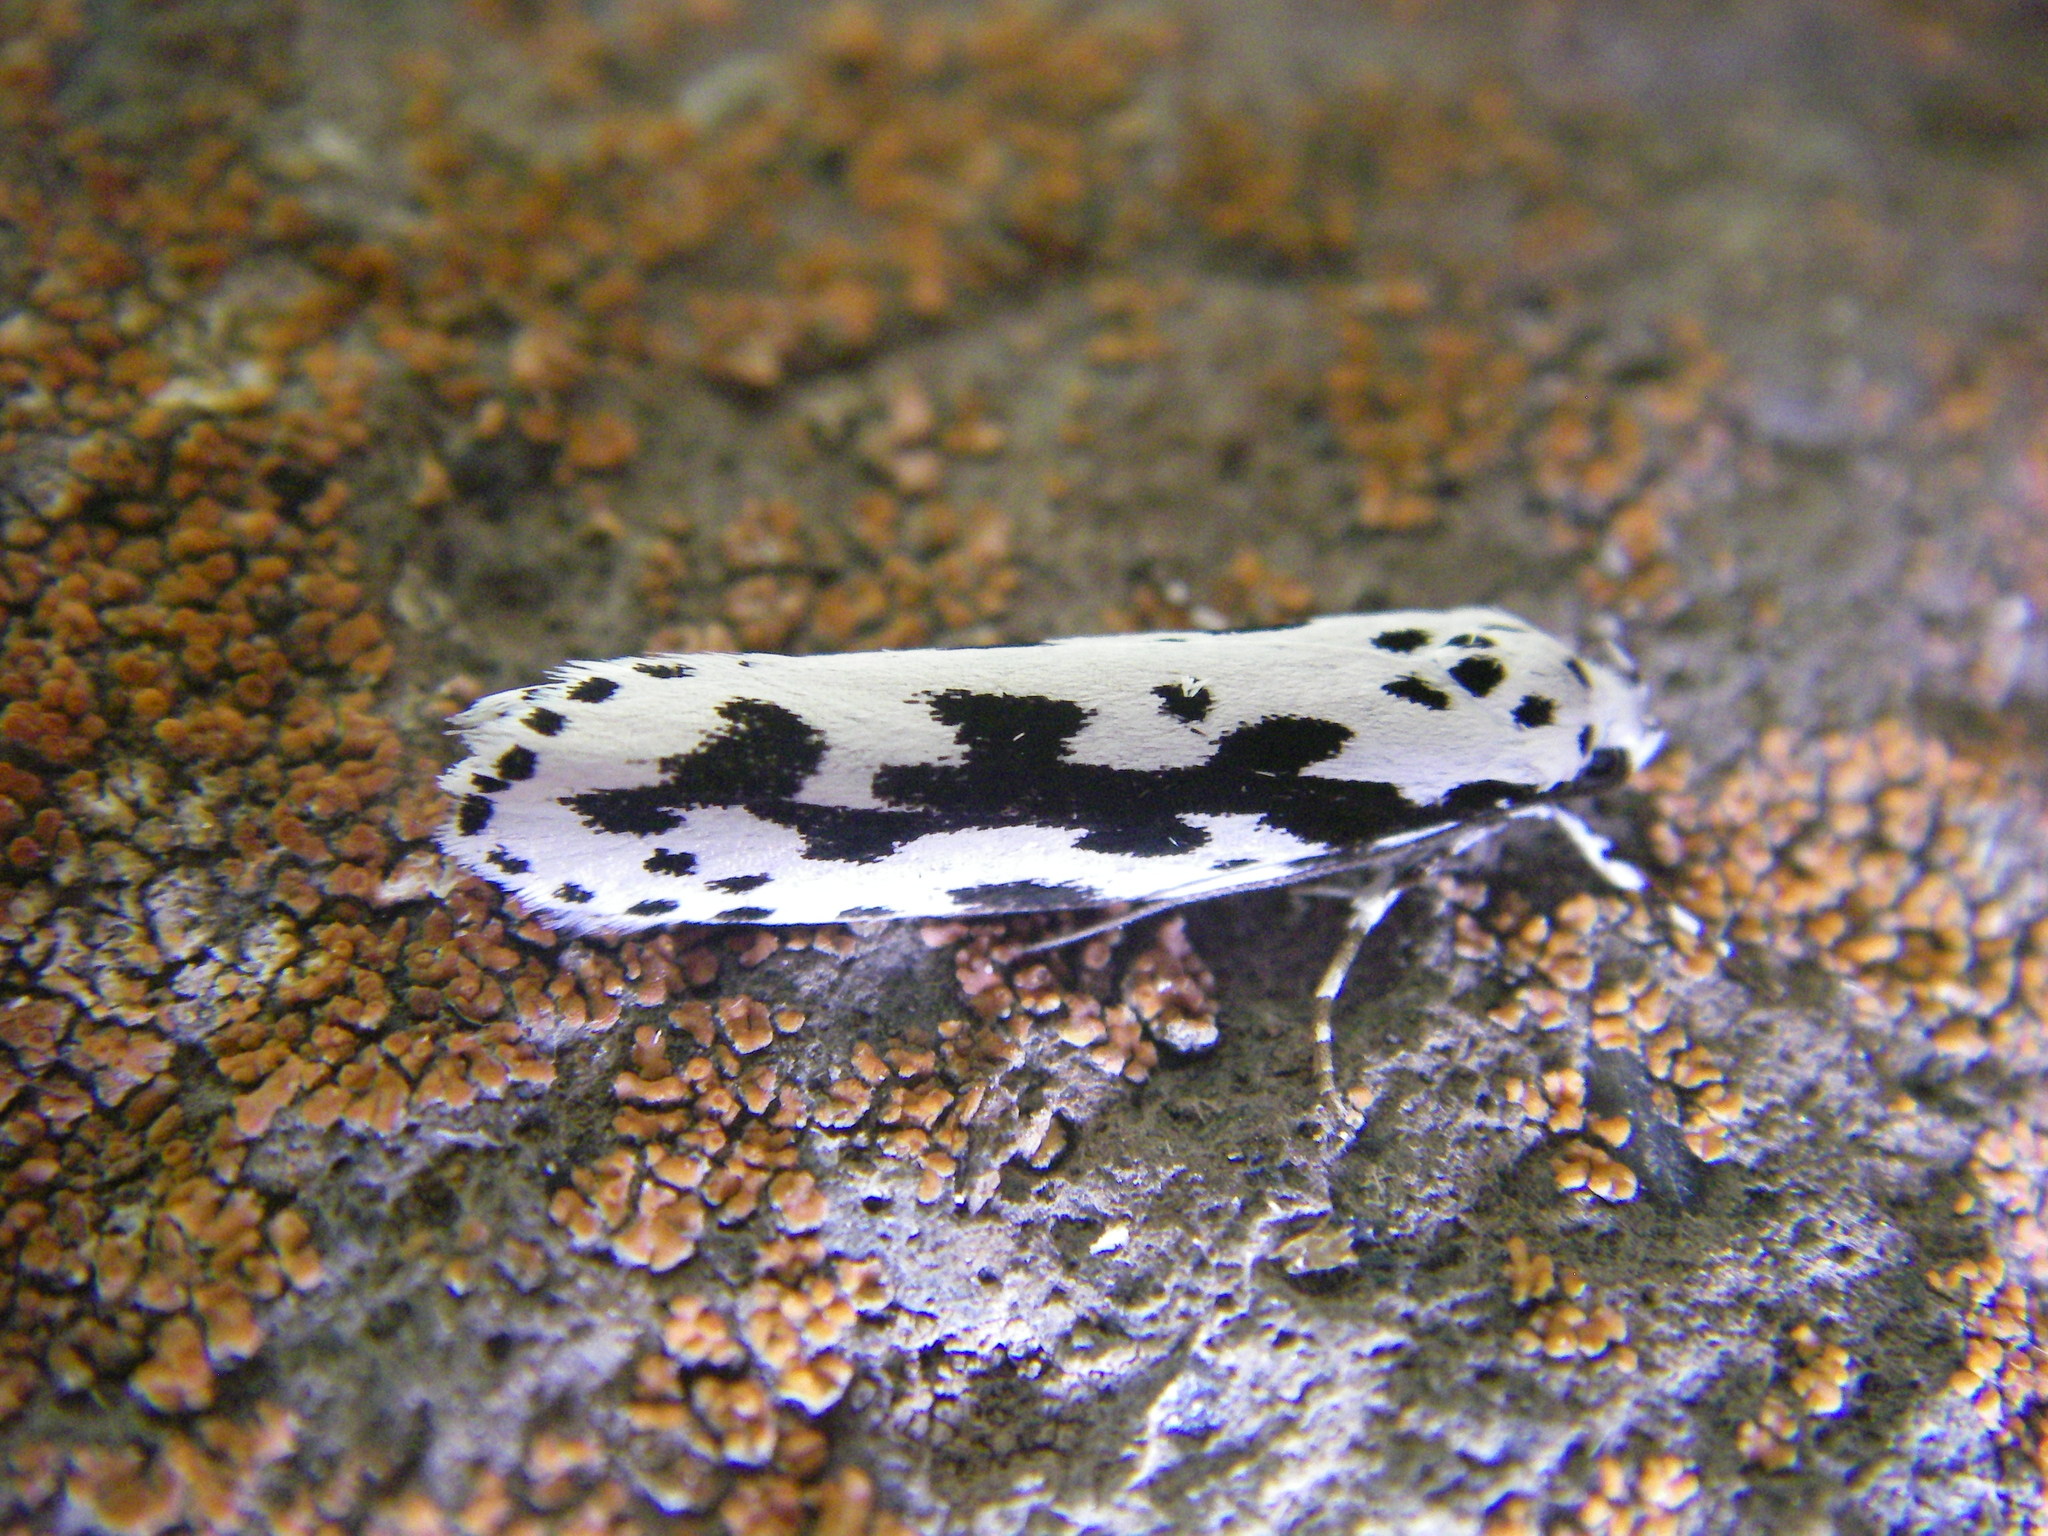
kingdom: Animalia
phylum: Arthropoda
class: Insecta
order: Lepidoptera
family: Ethmiidae
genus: Ethmia
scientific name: Ethmia pusiella
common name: Striped ermel
